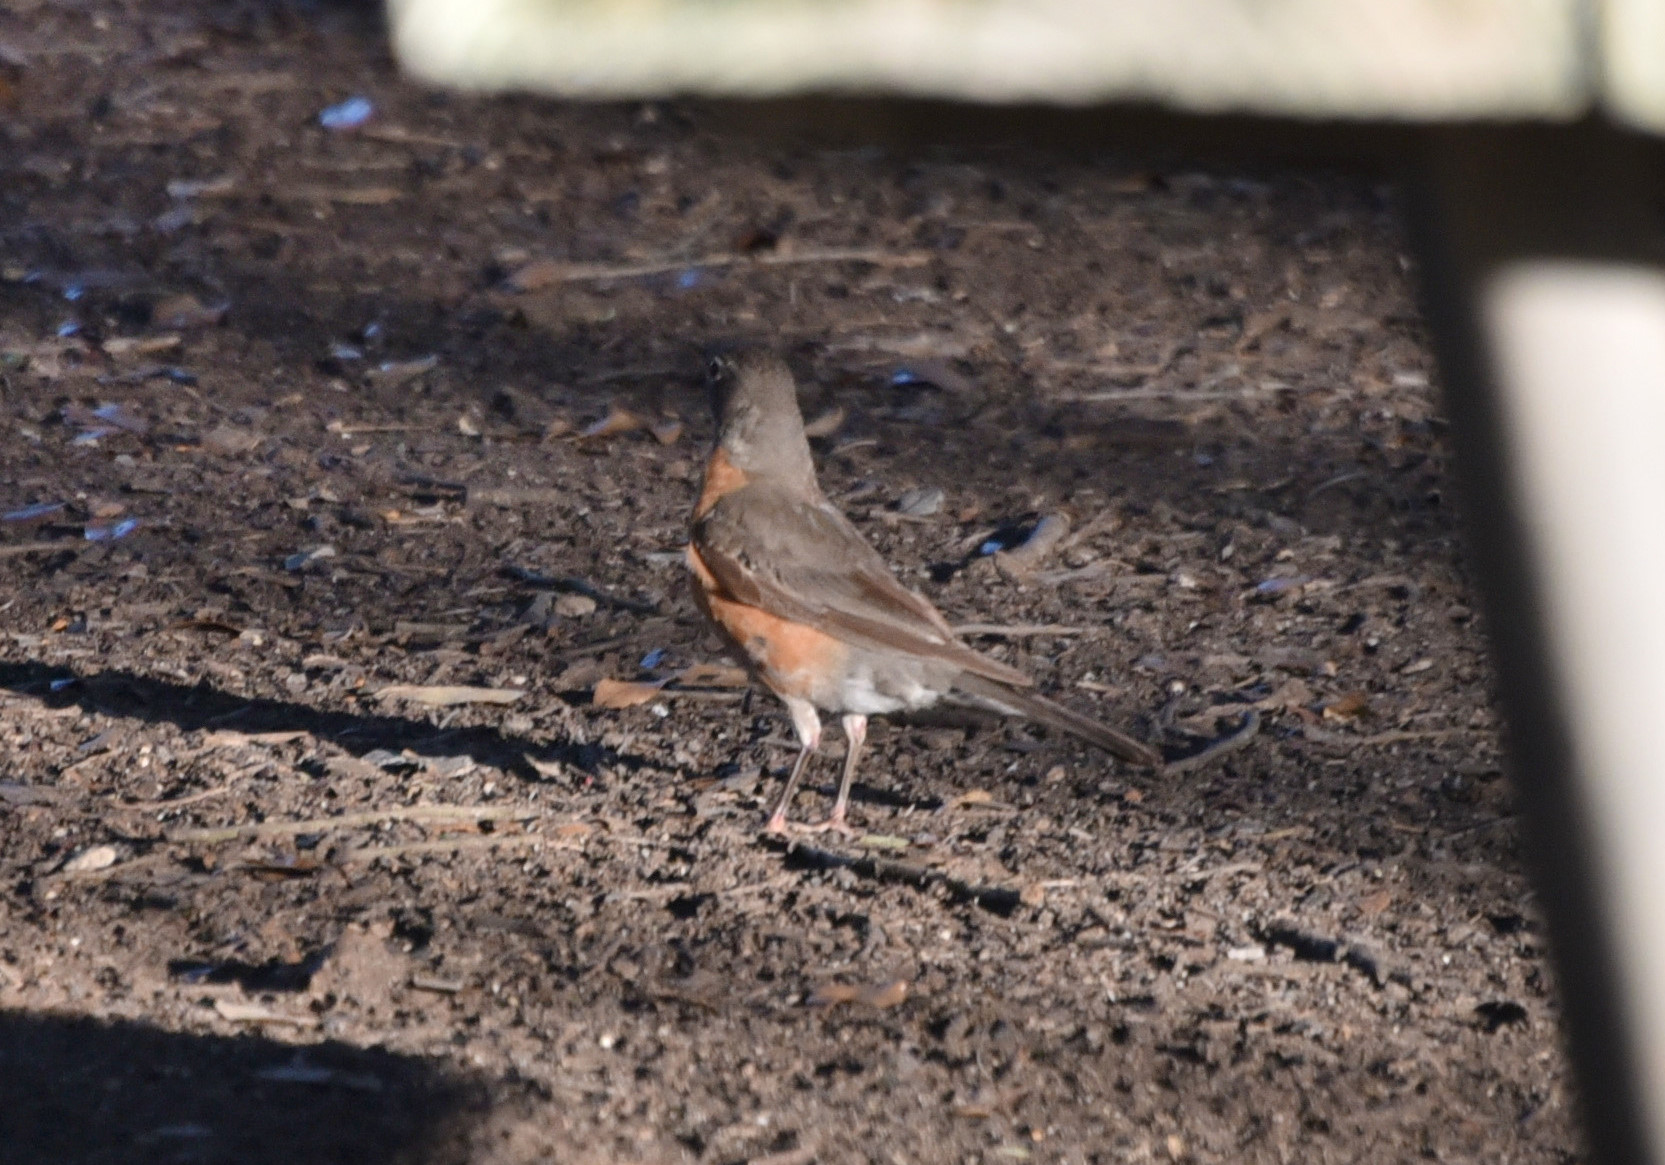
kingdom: Animalia
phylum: Chordata
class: Aves
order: Passeriformes
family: Turdidae
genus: Turdus
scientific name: Turdus migratorius
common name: American robin
